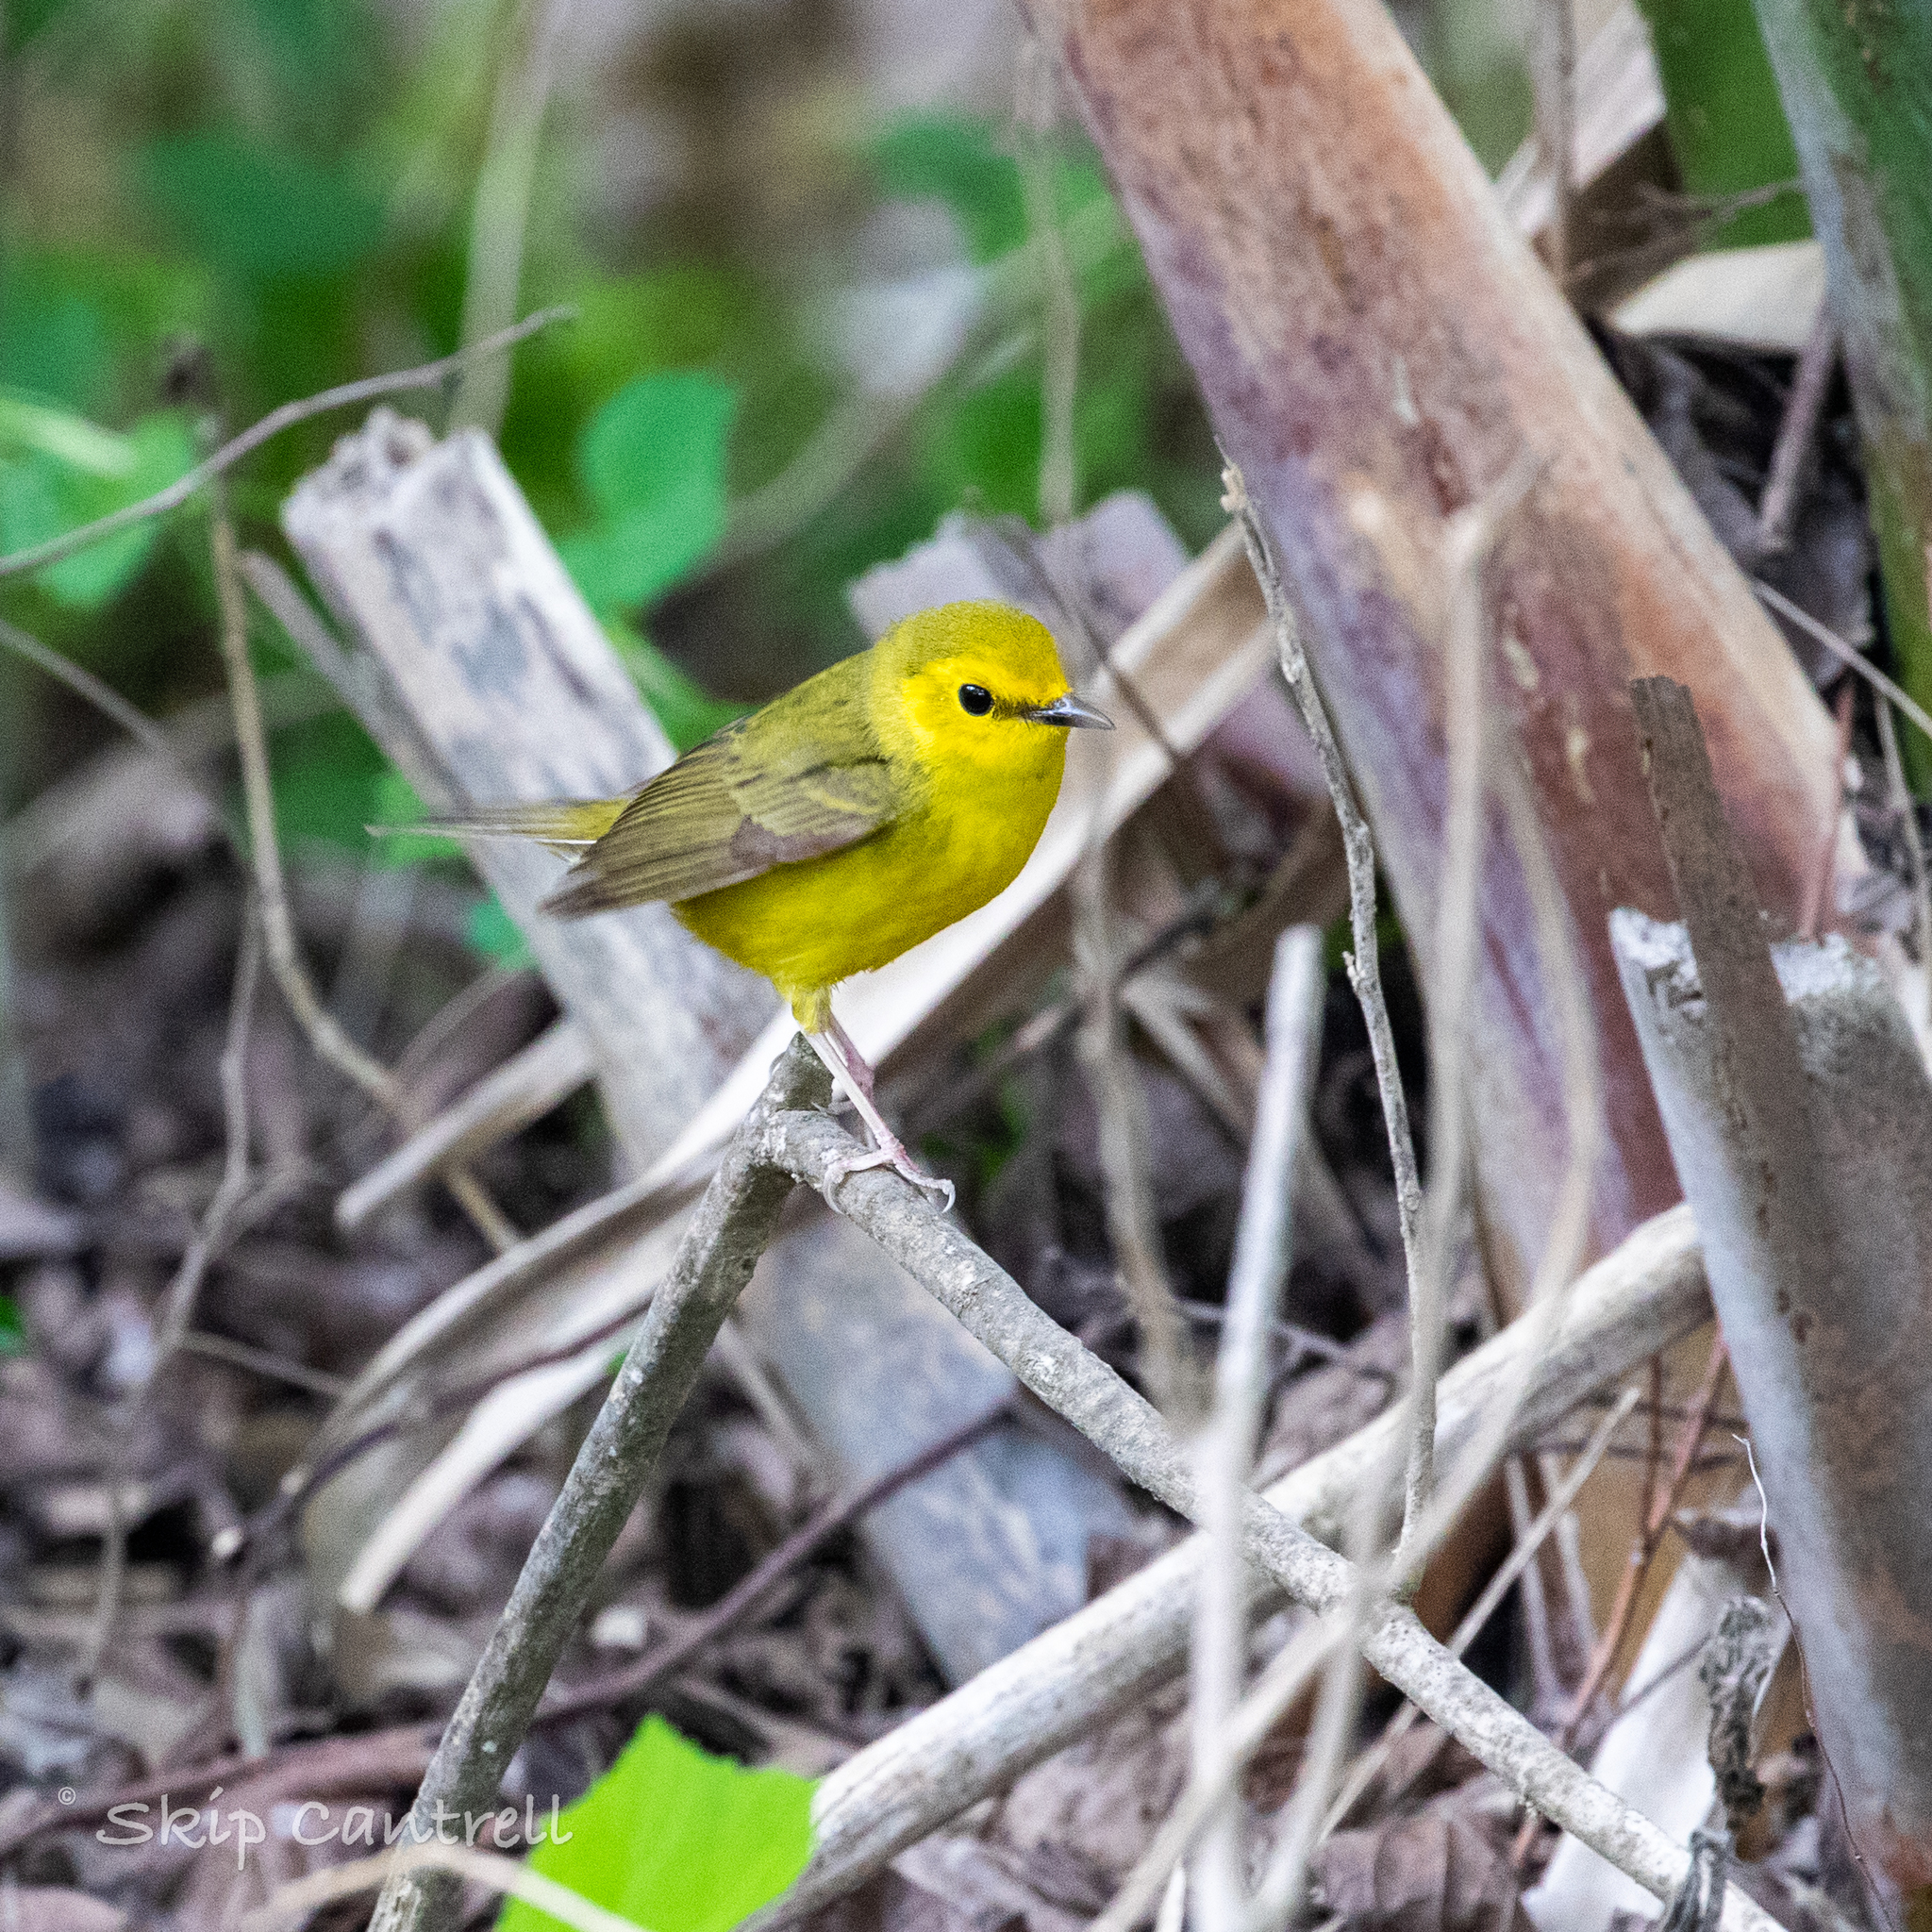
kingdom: Animalia
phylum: Chordata
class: Aves
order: Passeriformes
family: Parulidae
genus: Setophaga
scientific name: Setophaga citrina
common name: Hooded warbler
